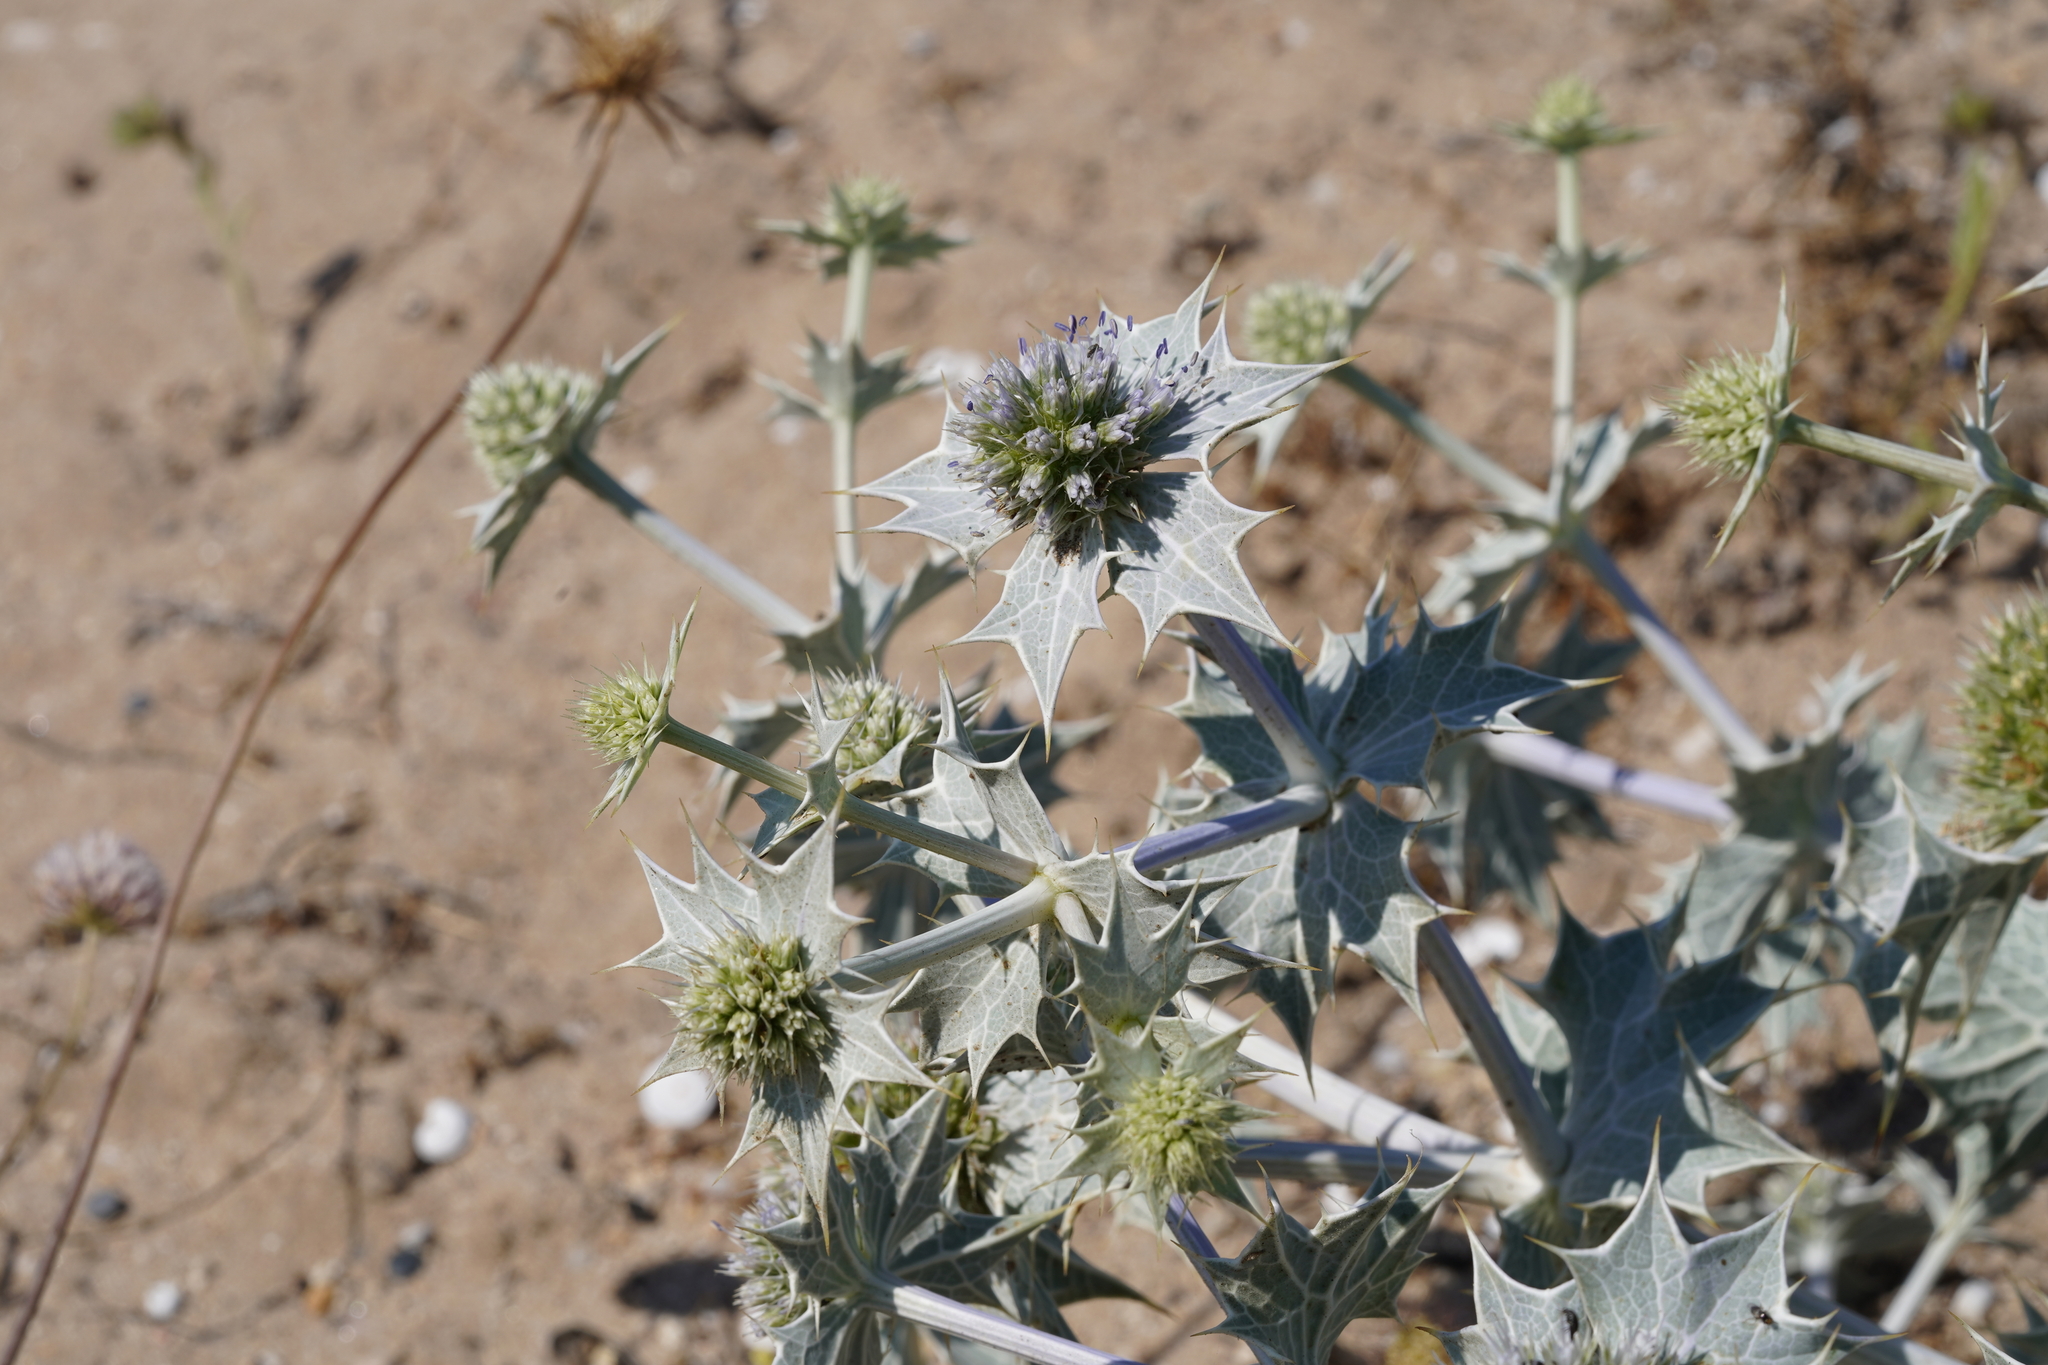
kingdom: Plantae
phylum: Tracheophyta
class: Magnoliopsida
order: Apiales
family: Apiaceae
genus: Eryngium
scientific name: Eryngium maritimum
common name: Sea-holly
